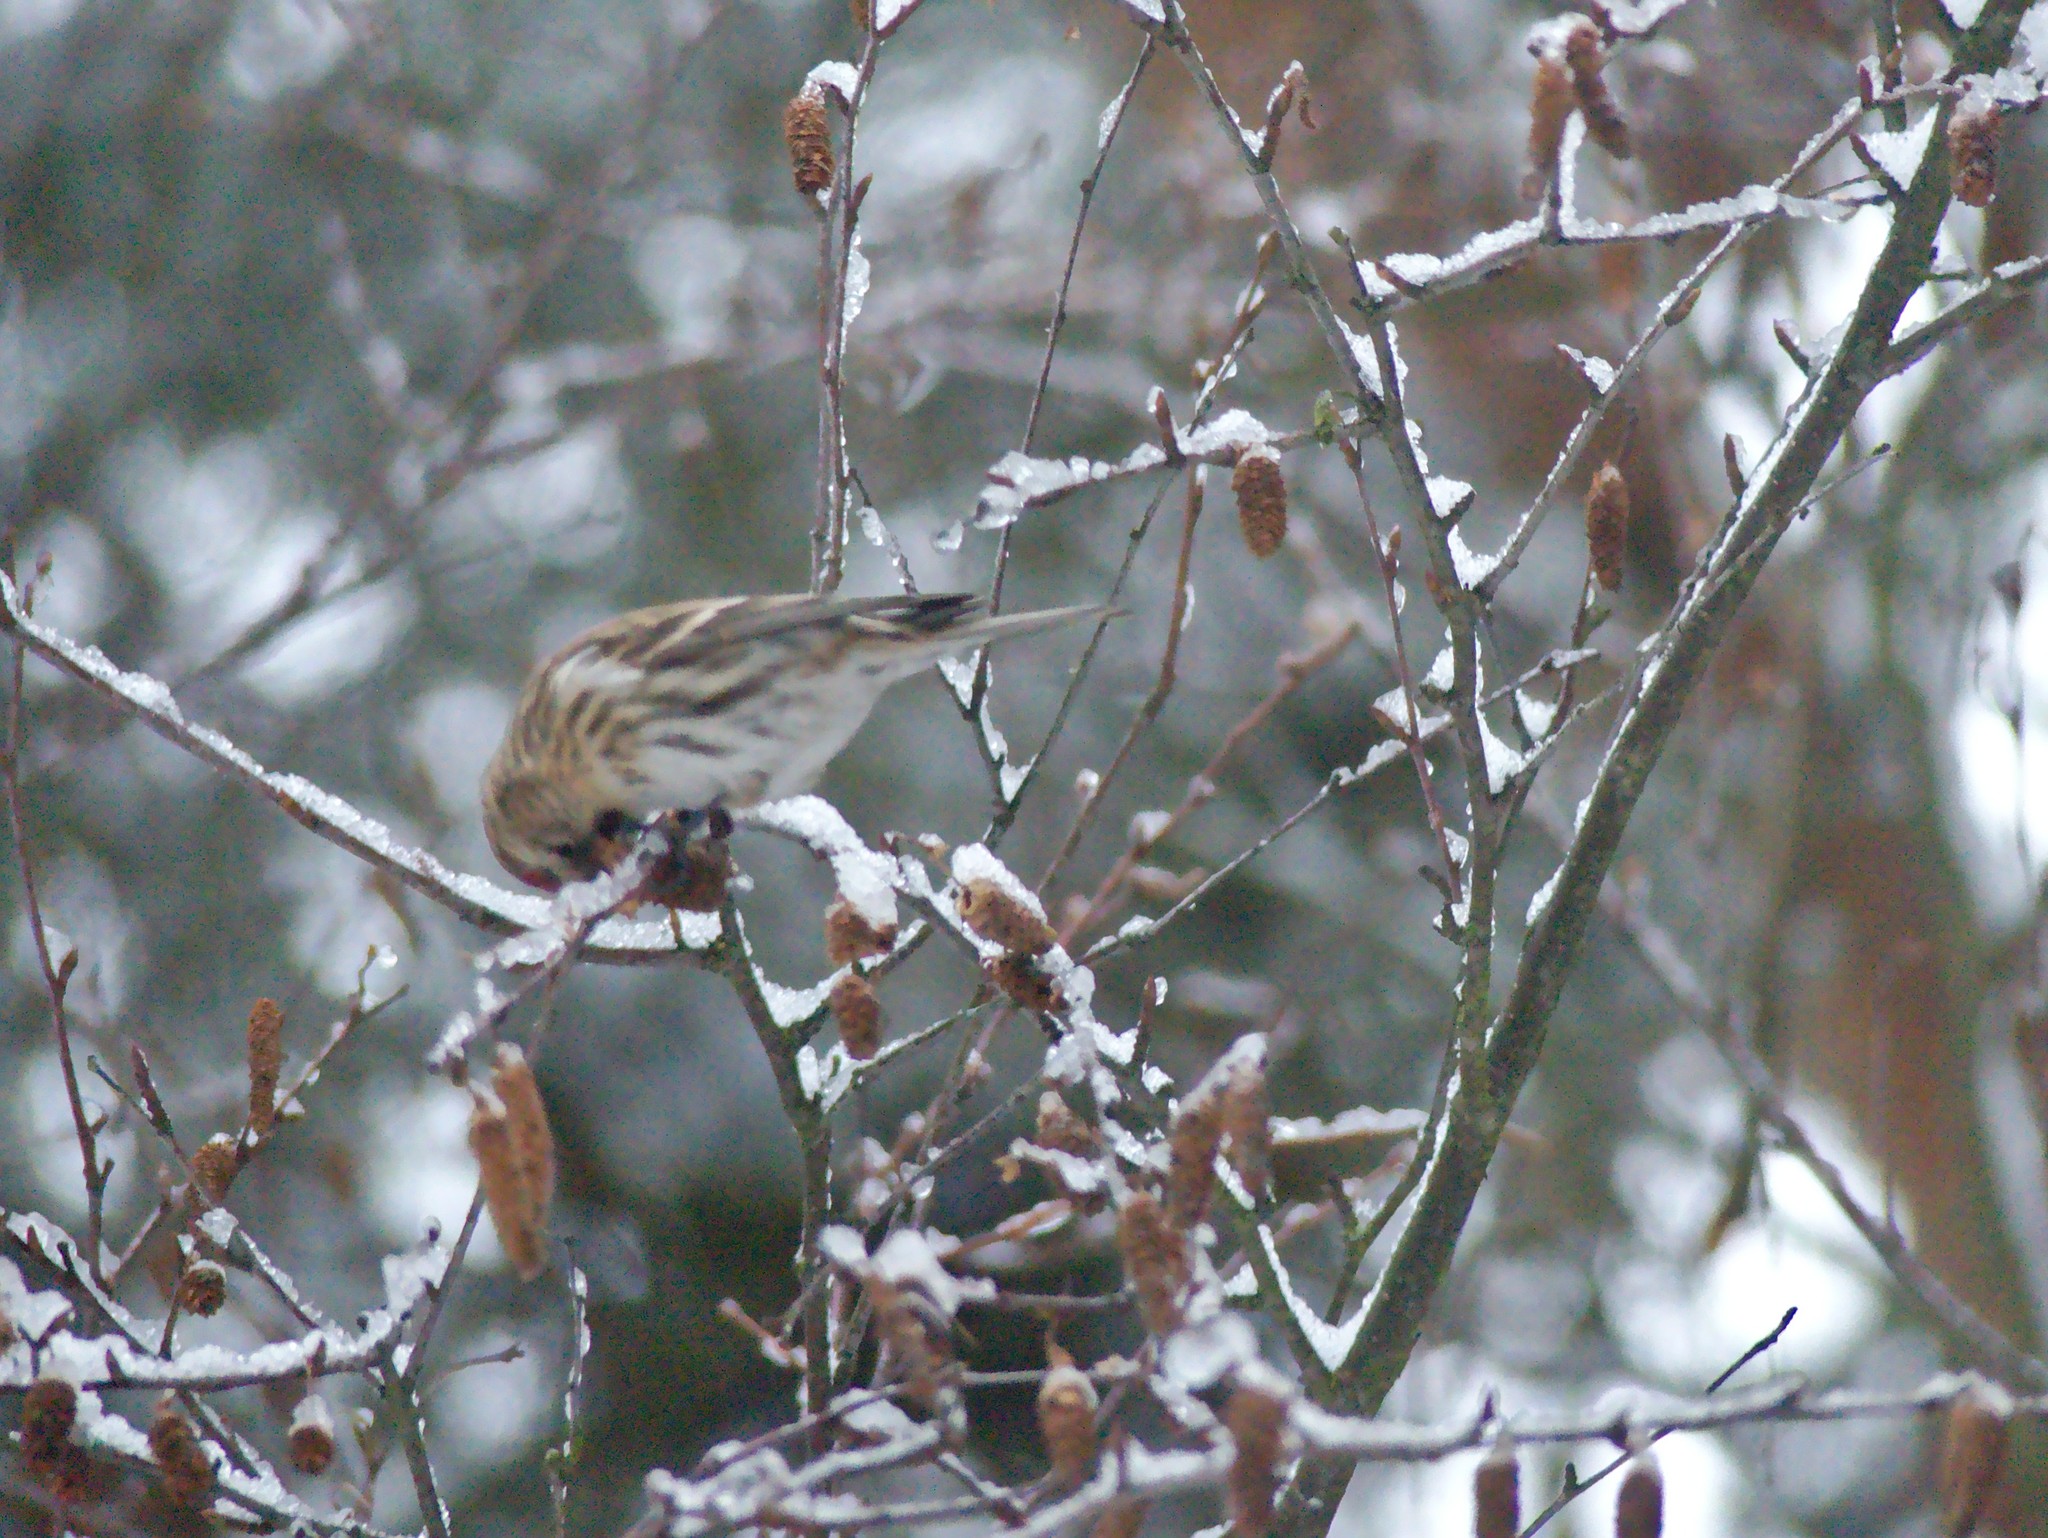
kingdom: Animalia
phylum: Chordata
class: Aves
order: Passeriformes
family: Fringillidae
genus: Acanthis
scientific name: Acanthis flammea
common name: Common redpoll
